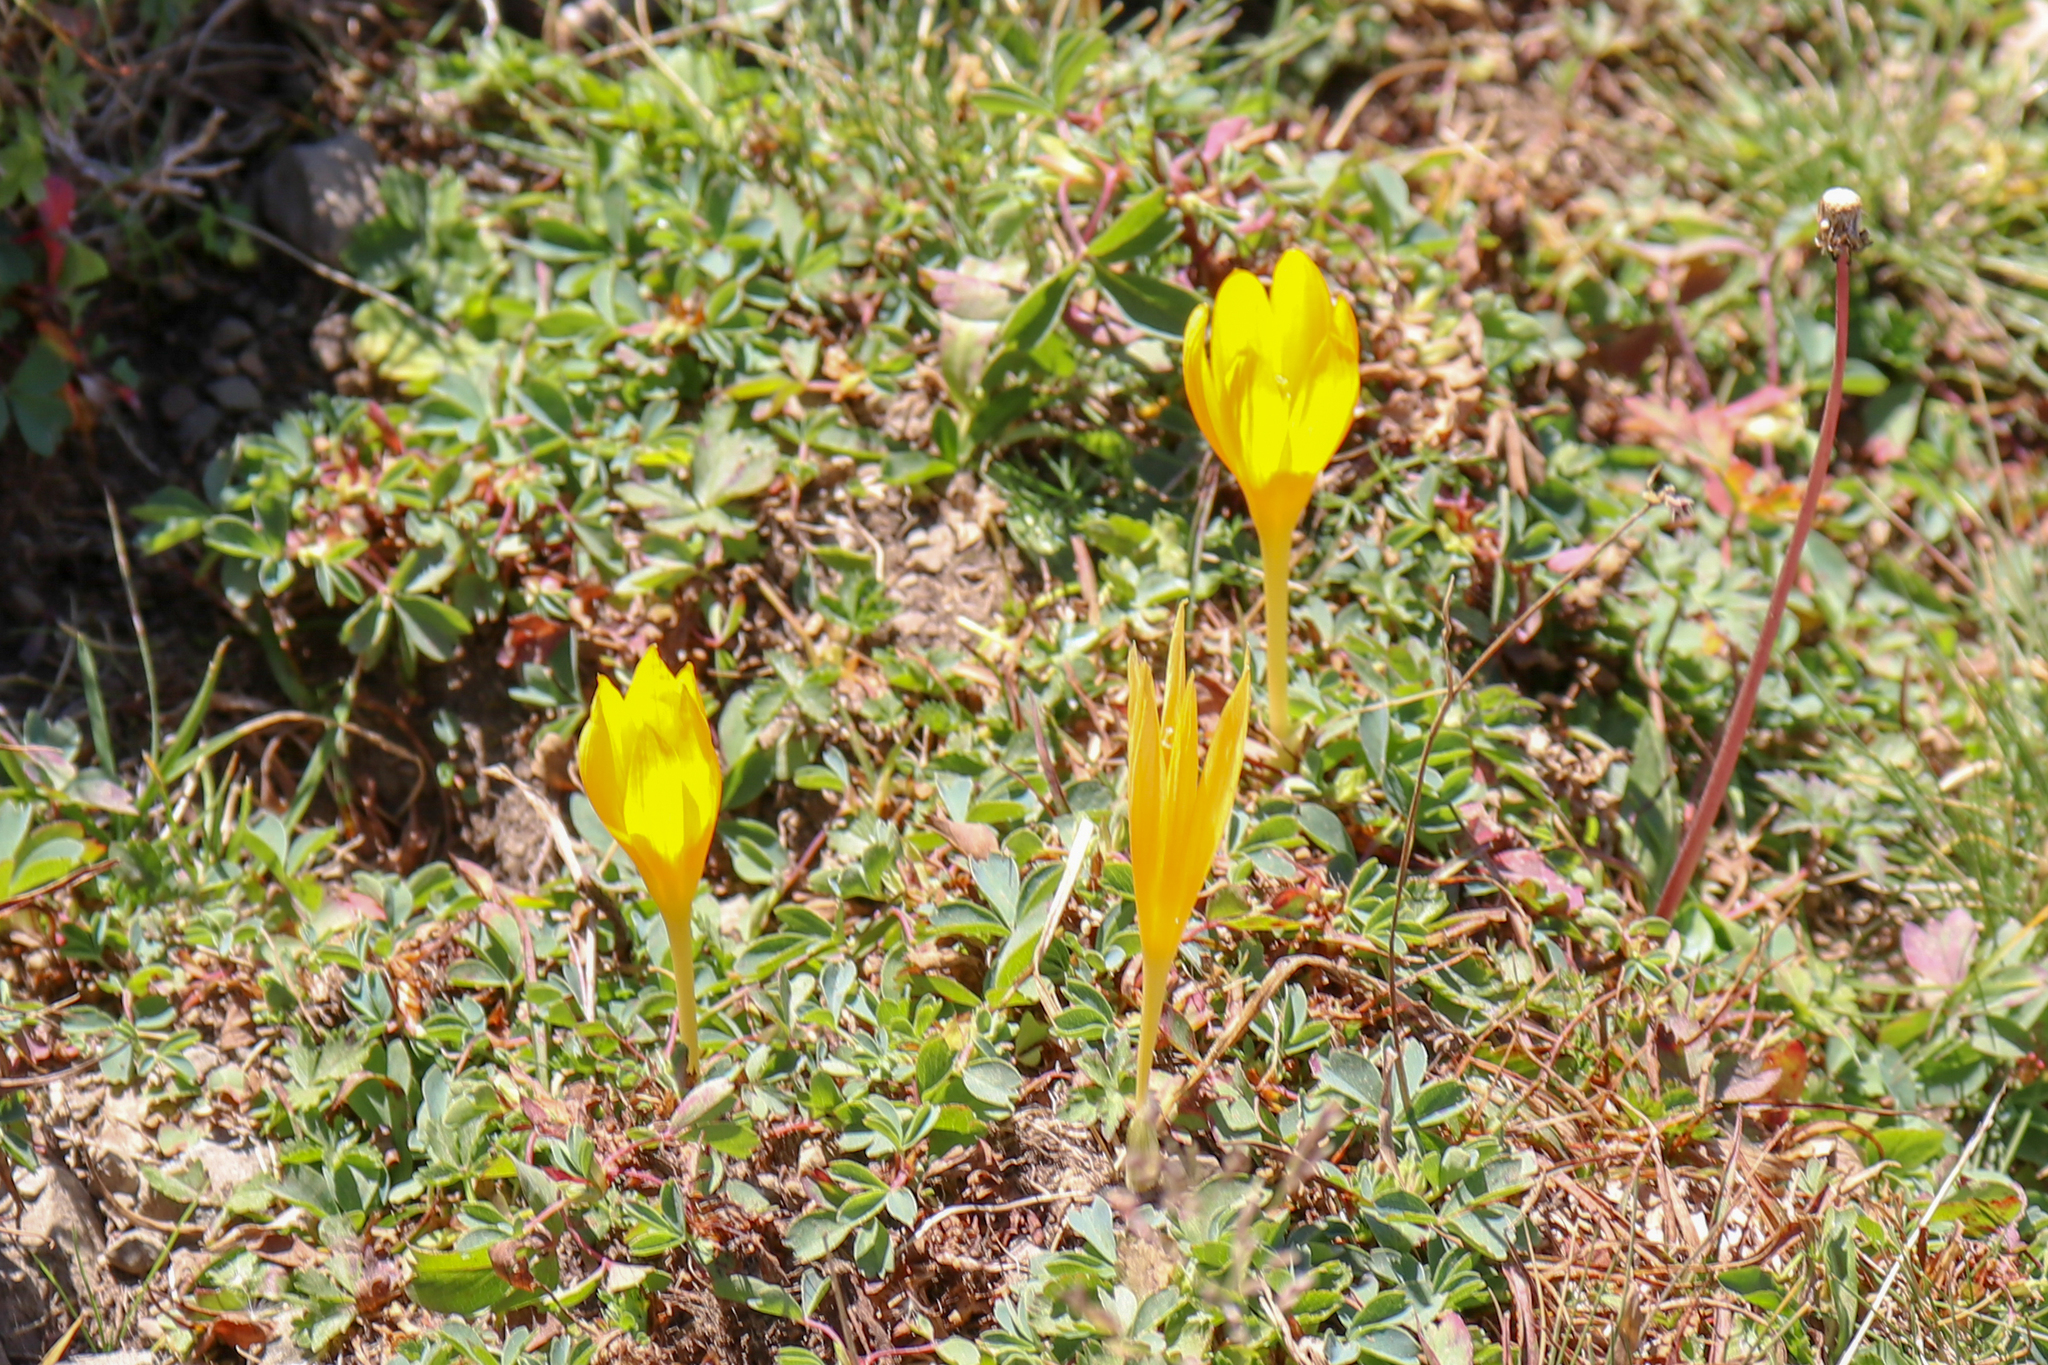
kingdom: Plantae
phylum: Tracheophyta
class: Liliopsida
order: Asparagales
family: Iridaceae
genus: Crocus
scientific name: Crocus scharojanii
